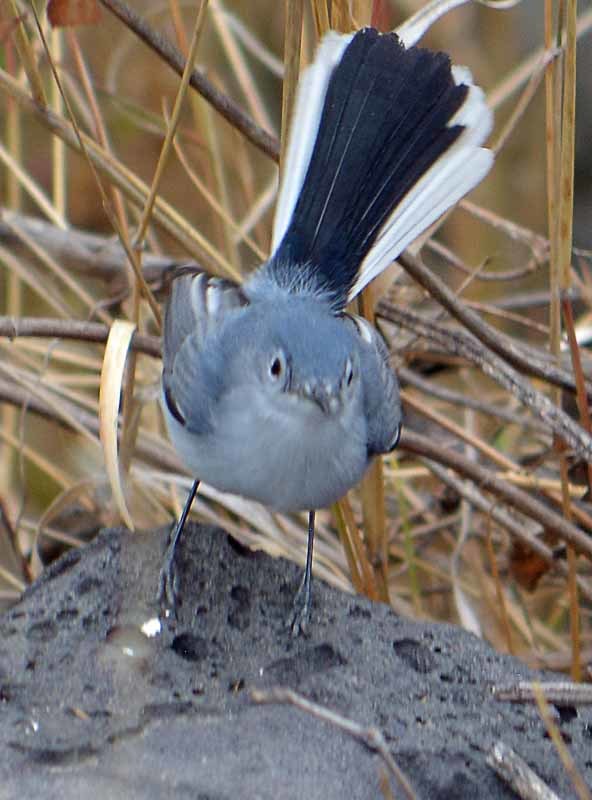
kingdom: Animalia
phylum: Chordata
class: Aves
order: Passeriformes
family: Polioptilidae
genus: Polioptila
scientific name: Polioptila caerulea
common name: Blue-gray gnatcatcher
